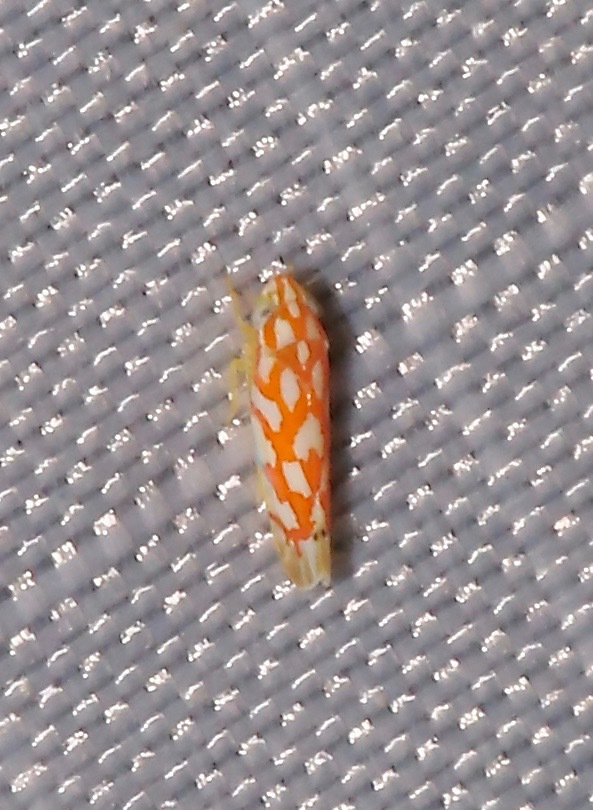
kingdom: Animalia
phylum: Arthropoda
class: Insecta
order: Hemiptera
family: Cicadellidae
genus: Eratoneura
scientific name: Eratoneura comoides
